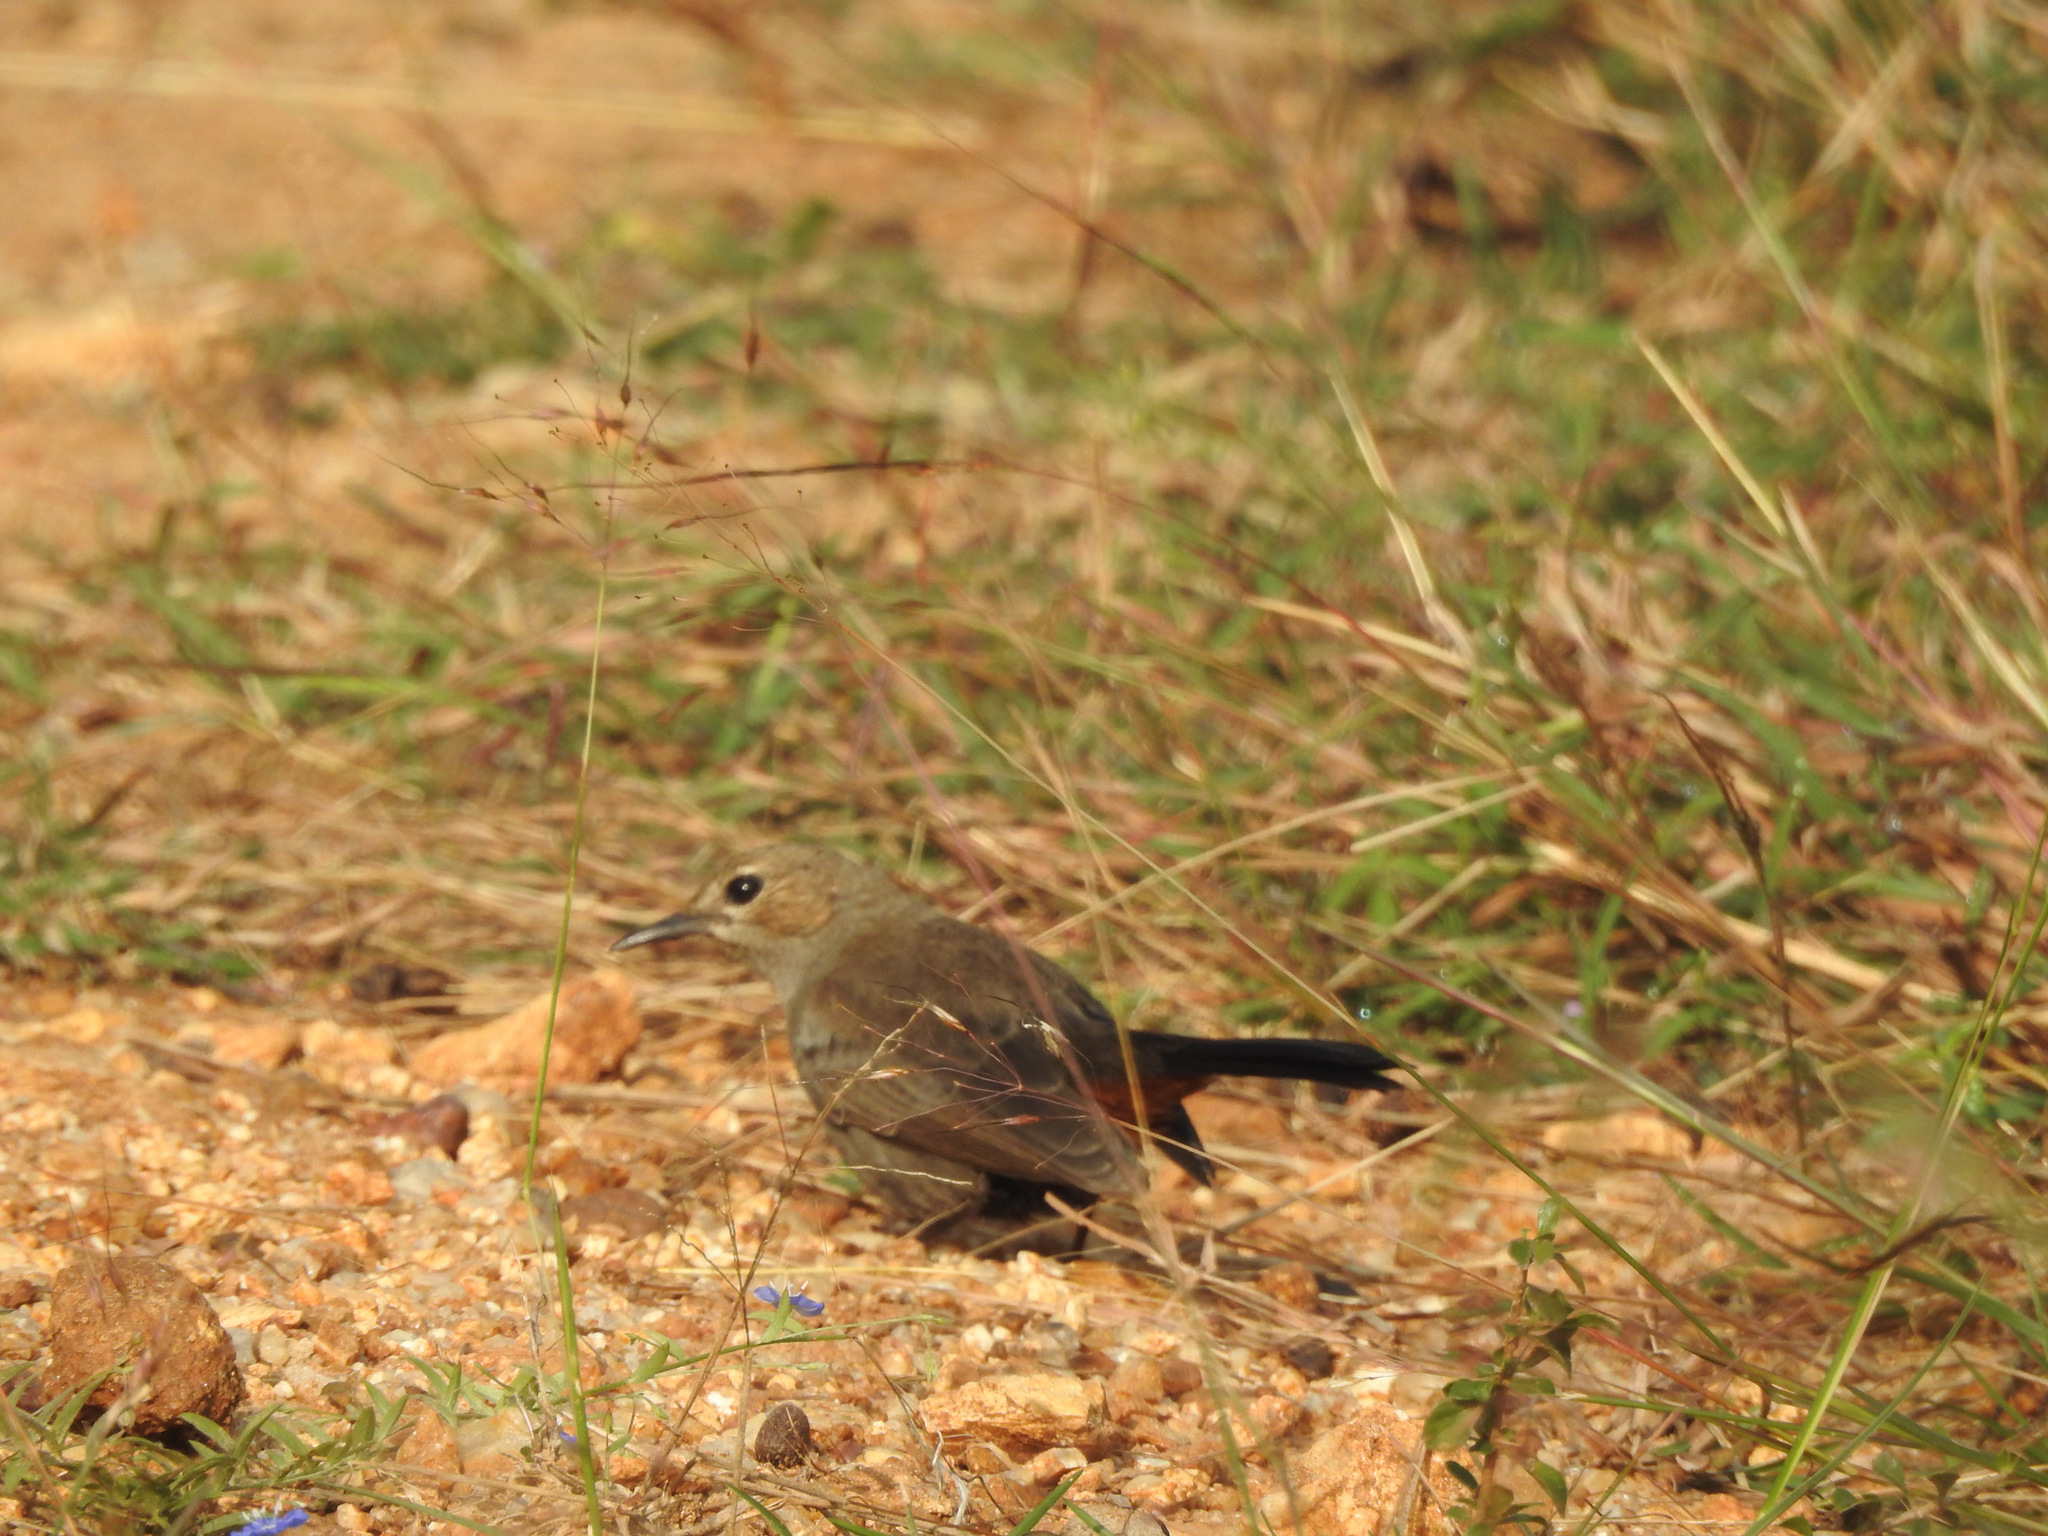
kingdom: Animalia
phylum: Chordata
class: Aves
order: Passeriformes
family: Muscicapidae
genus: Saxicoloides
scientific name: Saxicoloides fulicatus
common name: Indian robin
